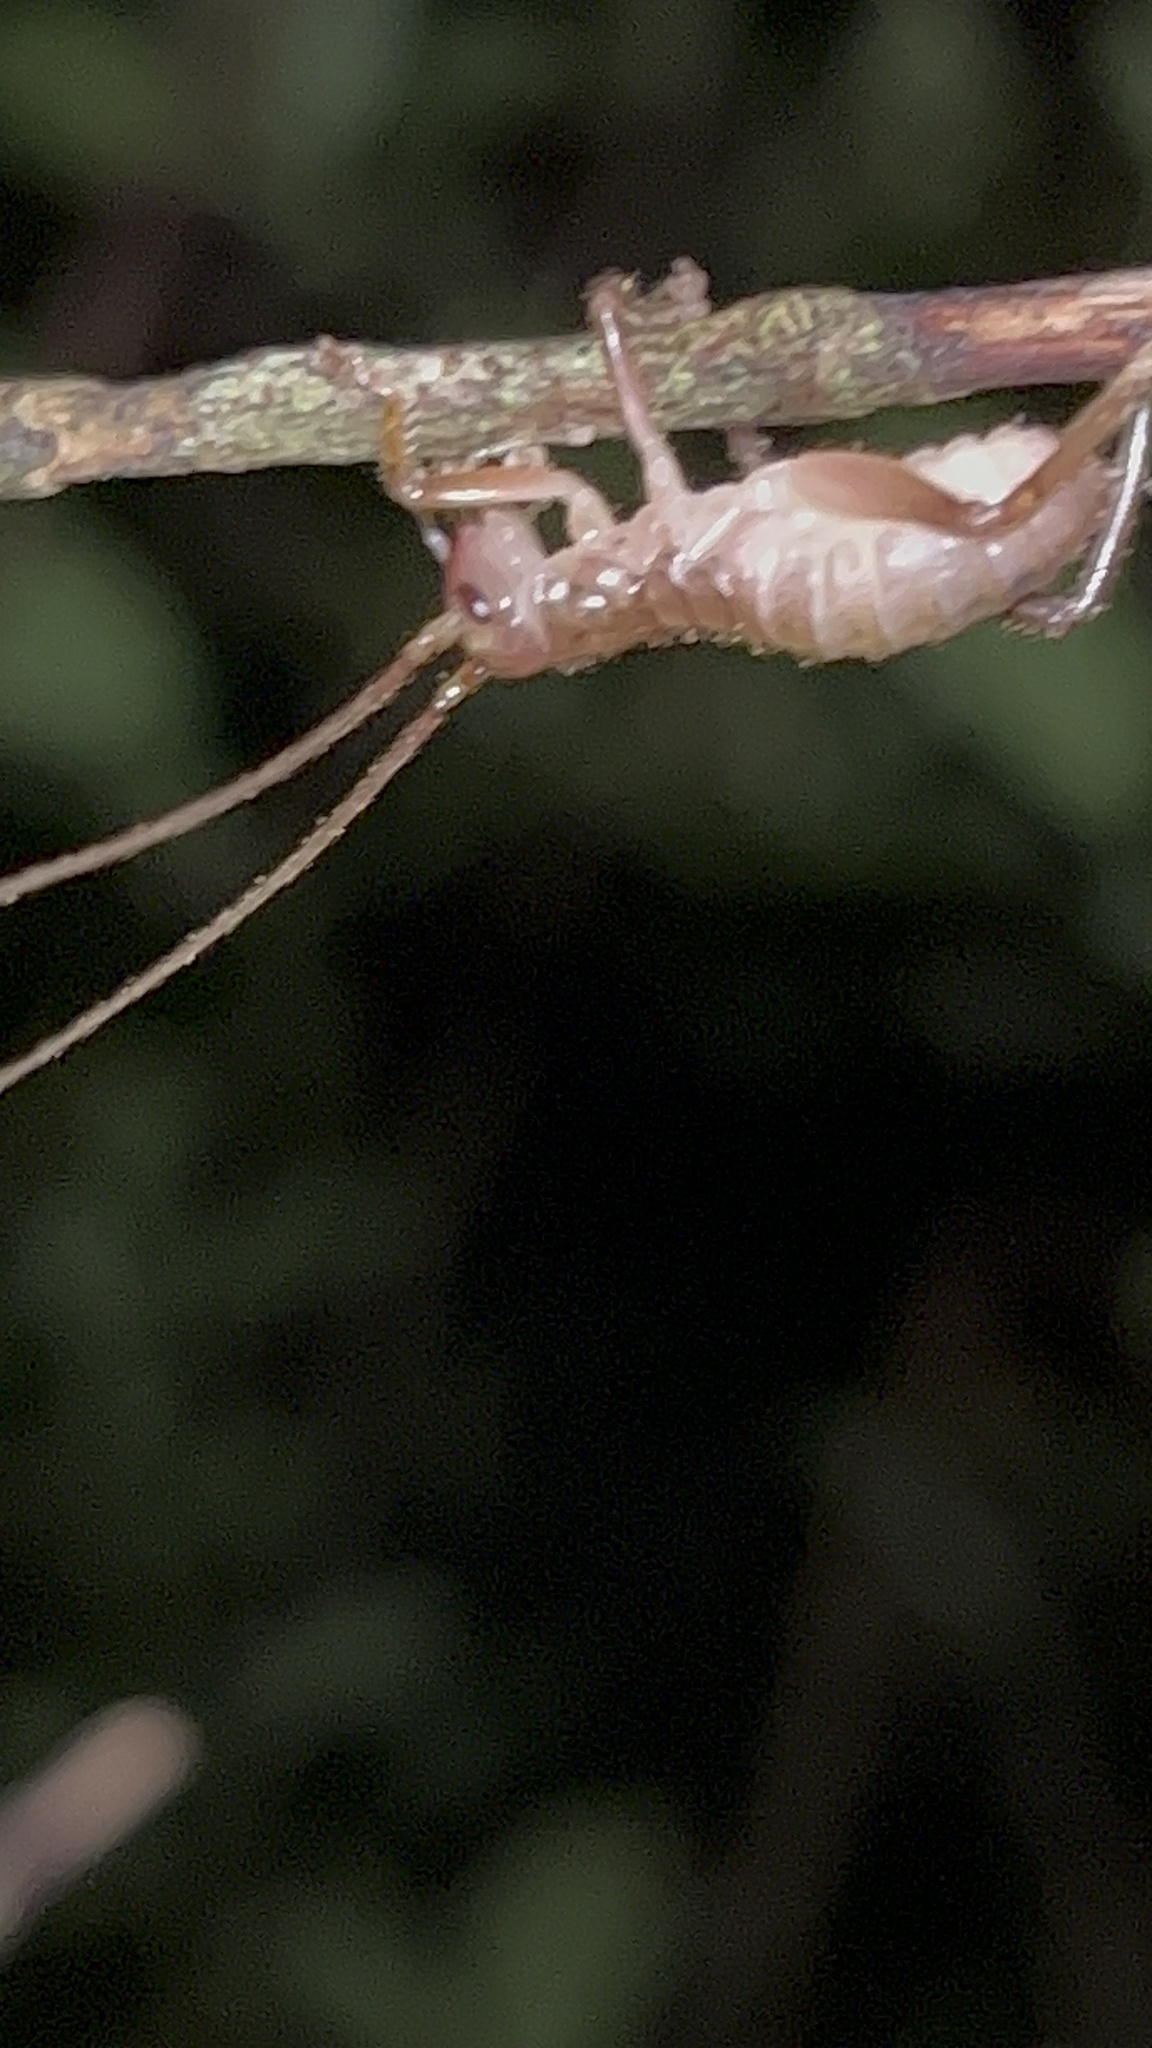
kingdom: Animalia
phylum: Arthropoda
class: Insecta
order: Orthoptera
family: Anostostomatidae
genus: Hemideina
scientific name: Hemideina thoracica
